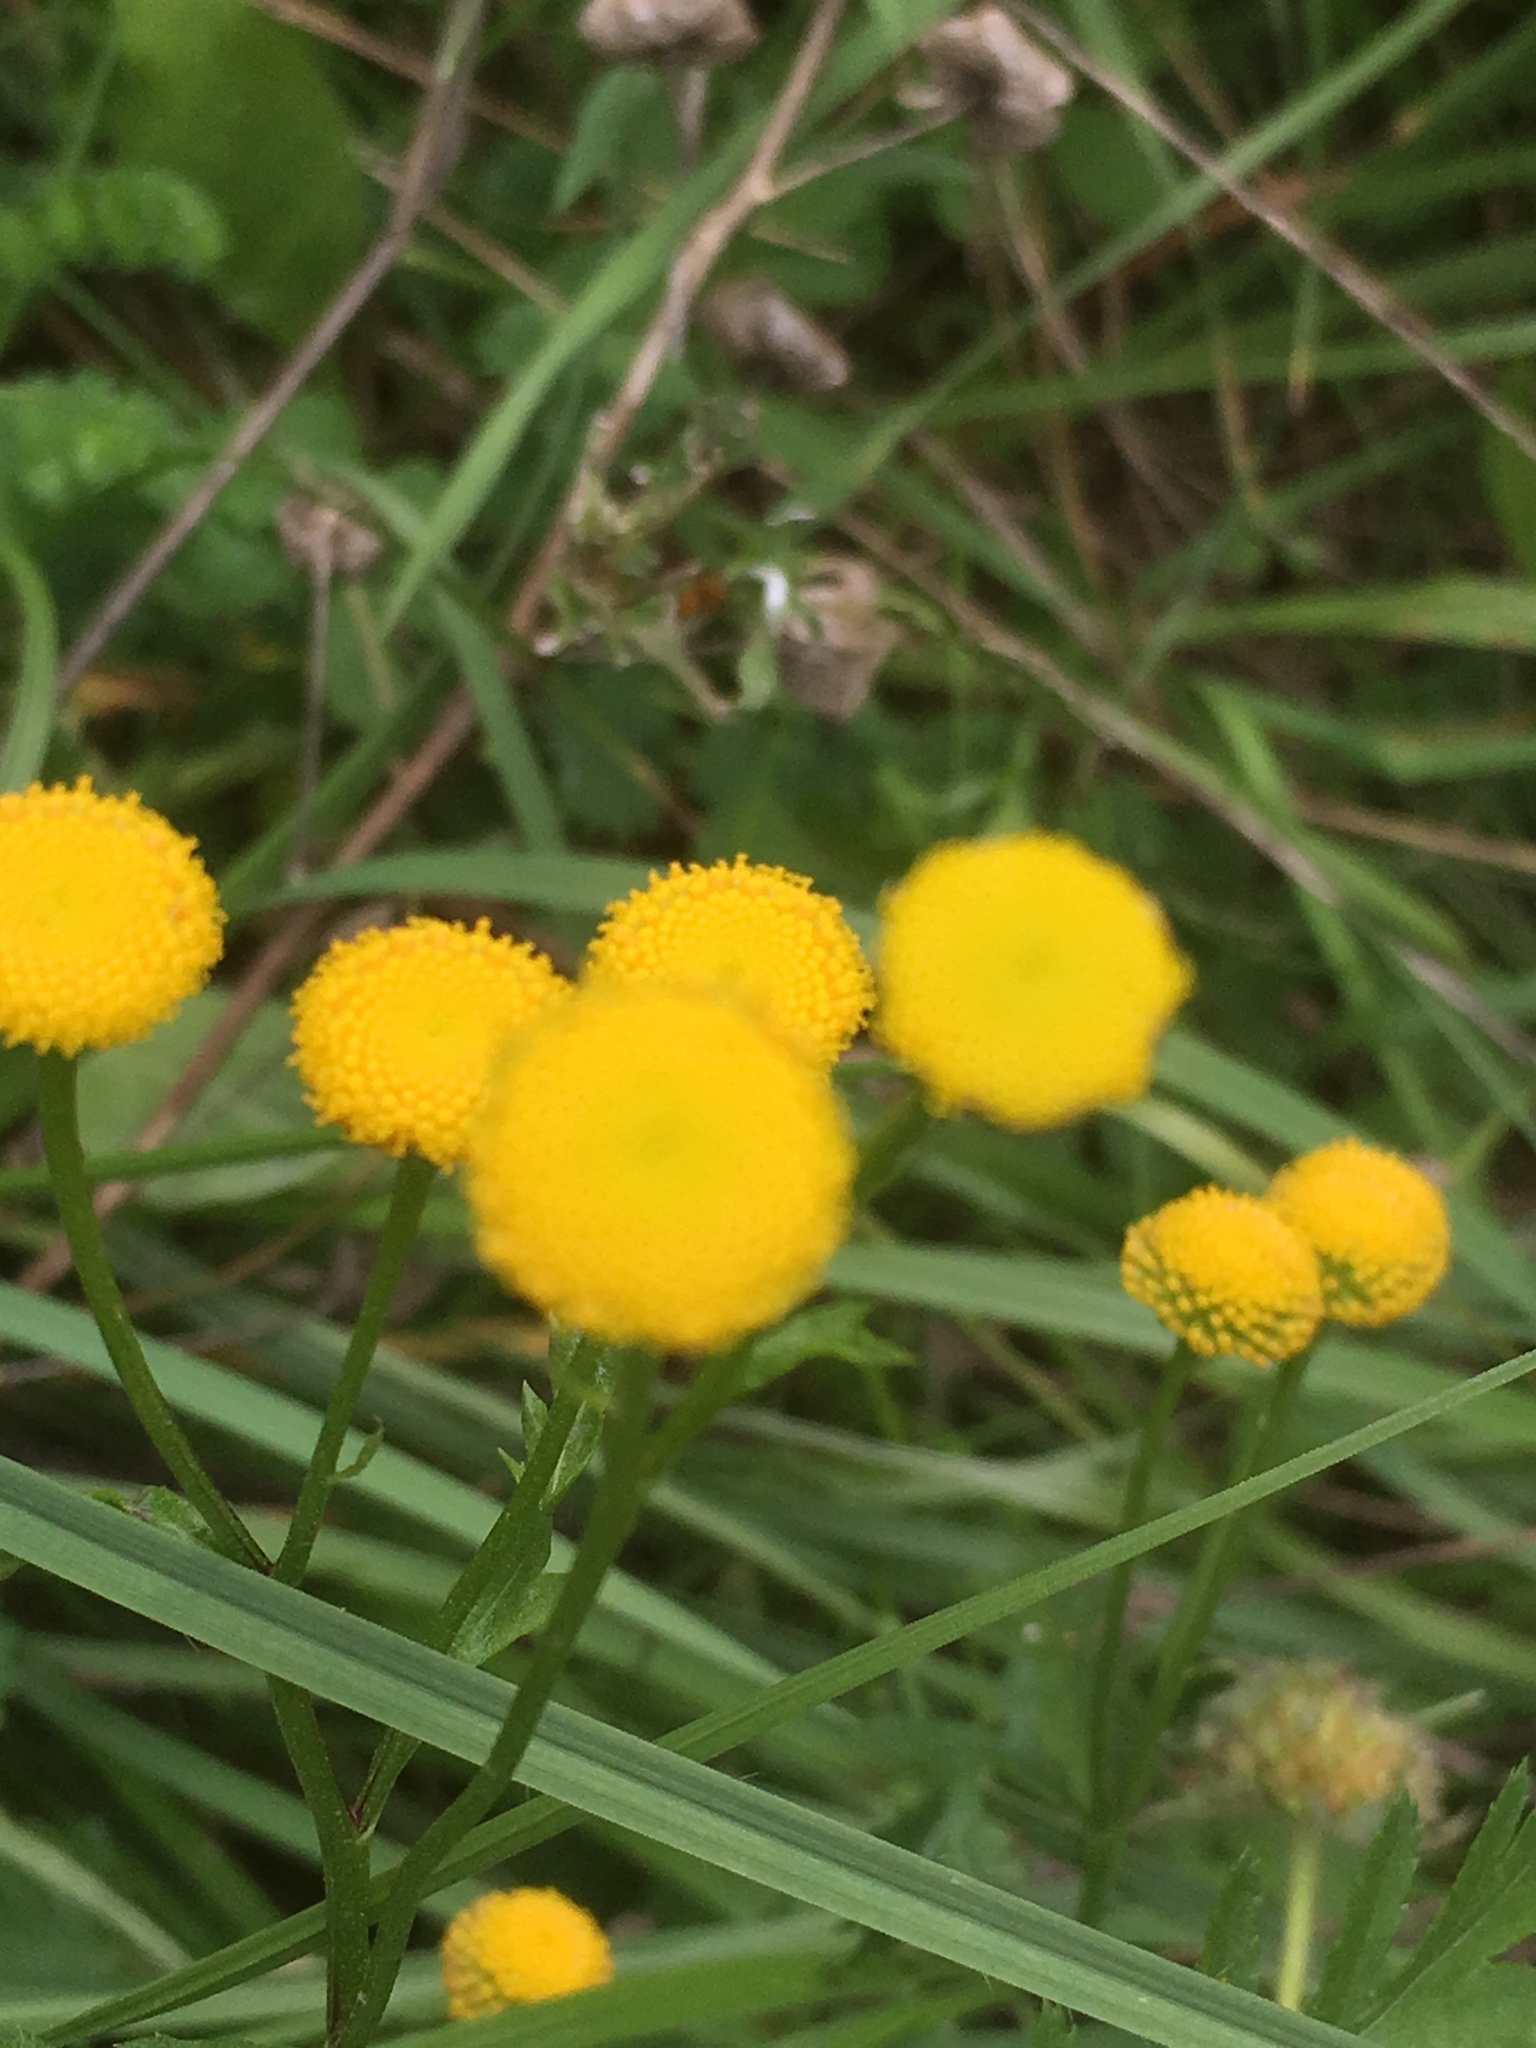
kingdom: Plantae
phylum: Tracheophyta
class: Magnoliopsida
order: Asterales
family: Asteraceae
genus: Tanacetum
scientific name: Tanacetum vulgare
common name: Common tansy
